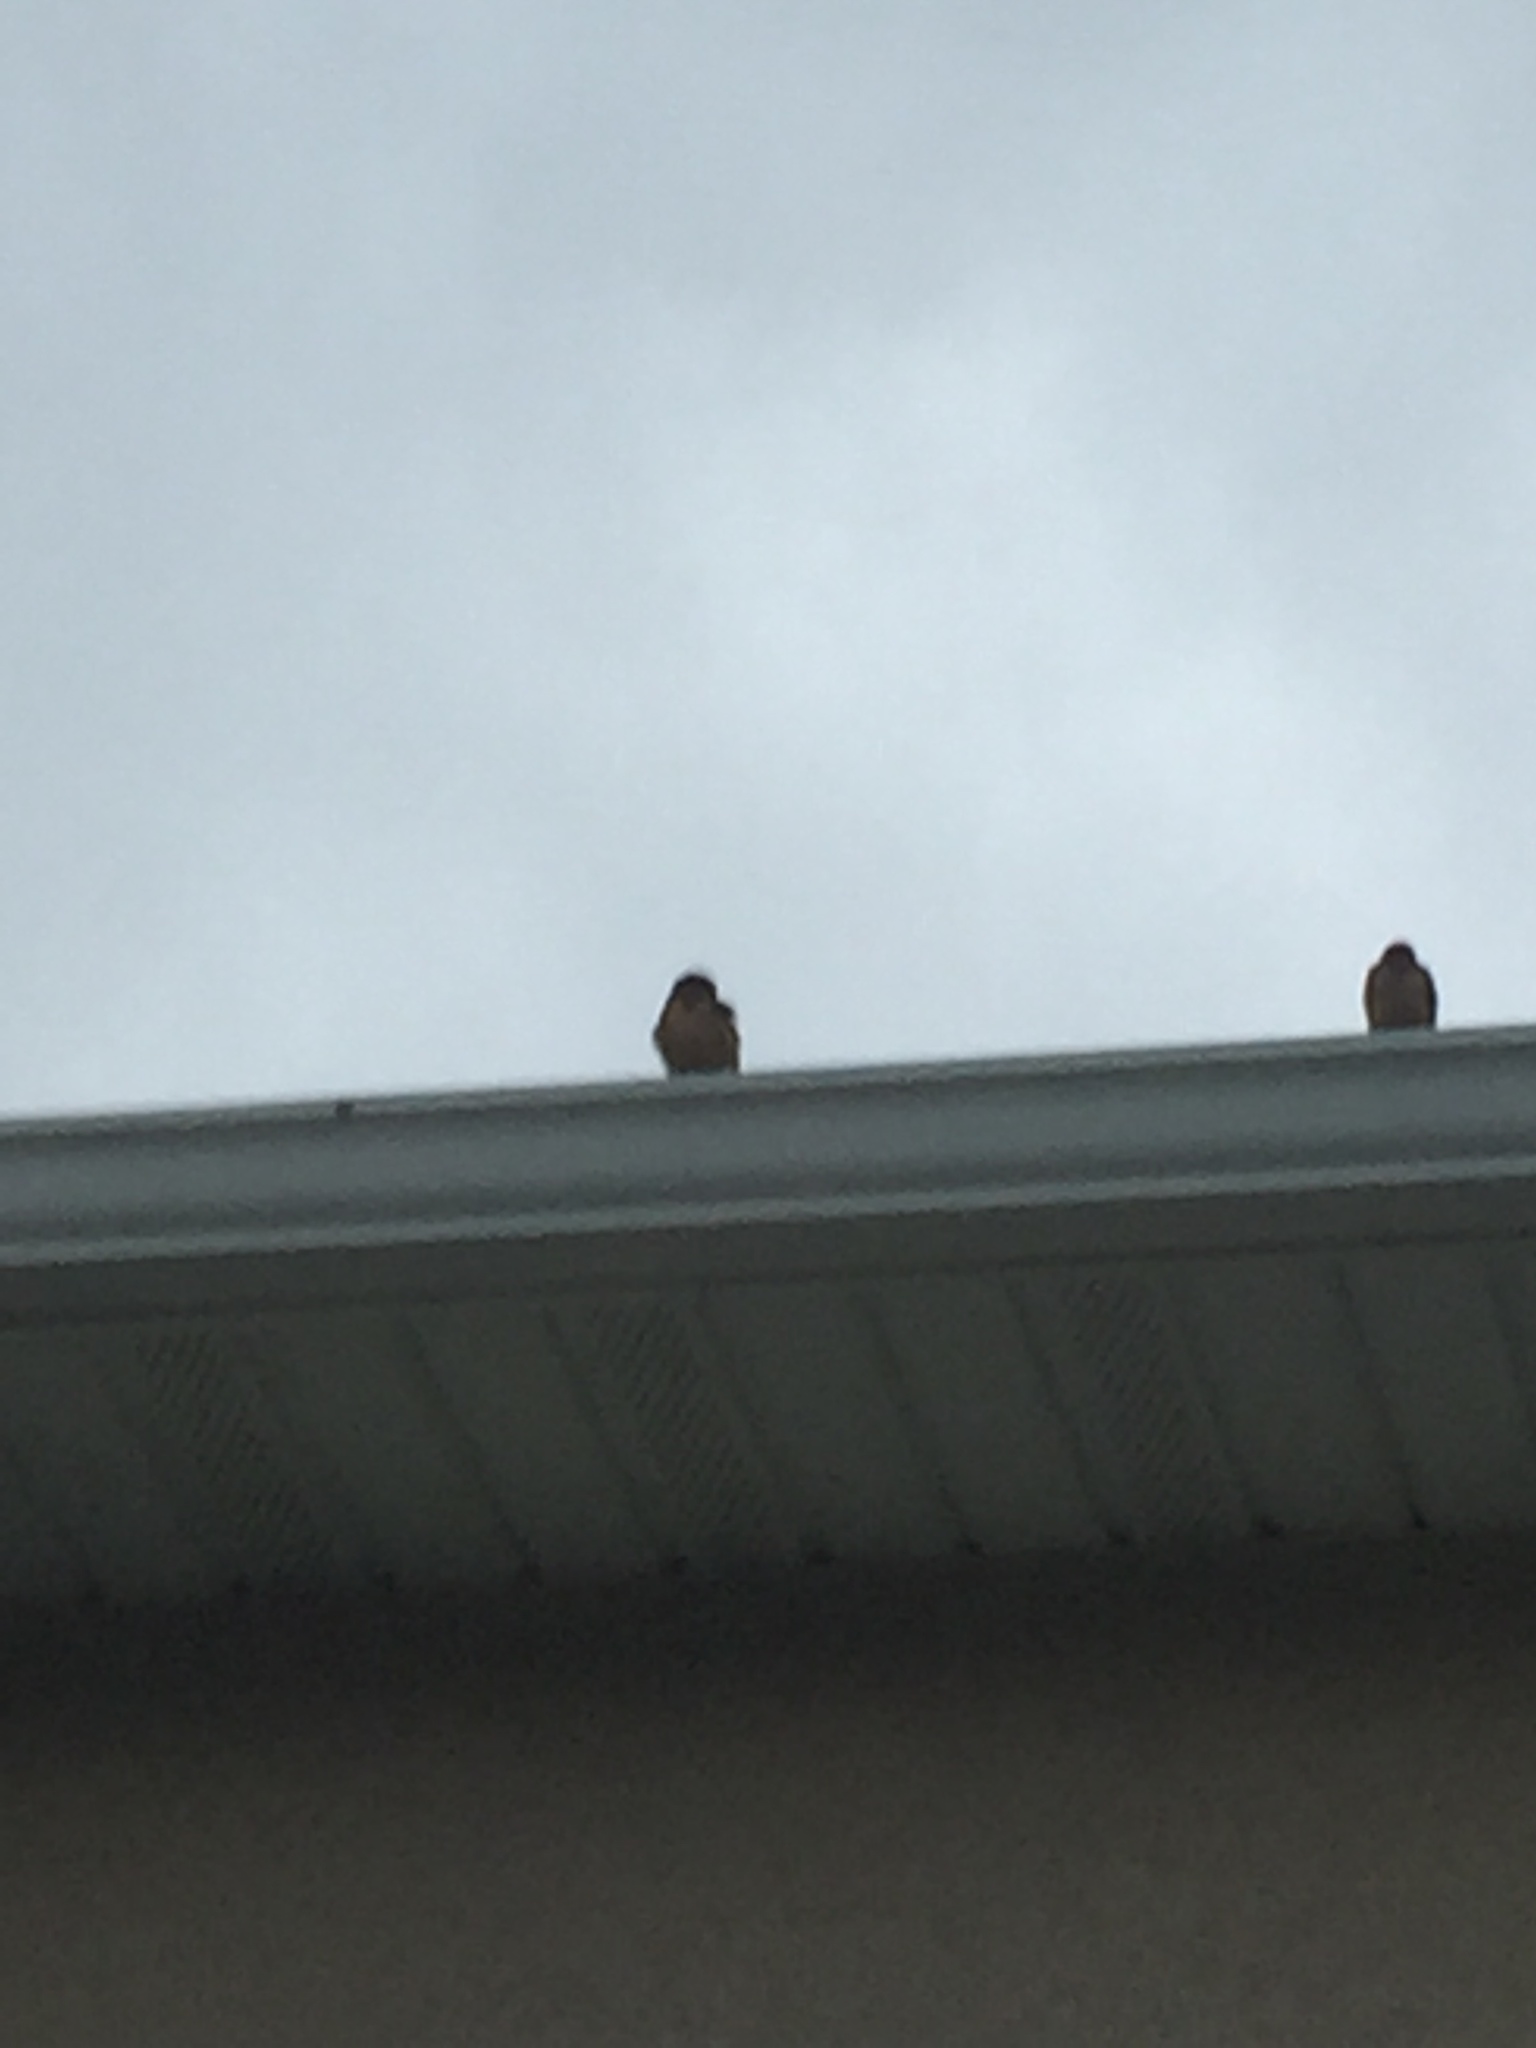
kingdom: Animalia
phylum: Chordata
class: Aves
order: Passeriformes
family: Hirundinidae
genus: Hirundo
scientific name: Hirundo rustica
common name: Barn swallow
